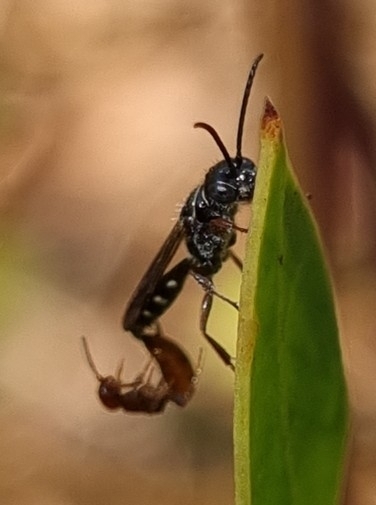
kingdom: Animalia
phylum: Arthropoda
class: Insecta
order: Hymenoptera
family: Thynnidae
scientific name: Thynnidae
